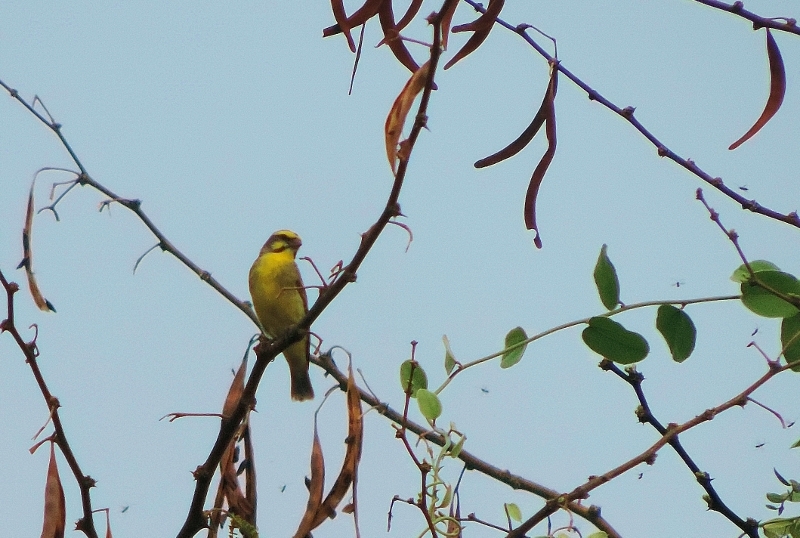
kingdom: Animalia
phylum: Chordata
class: Aves
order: Passeriformes
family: Fringillidae
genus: Crithagra
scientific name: Crithagra mozambica
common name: Yellow-fronted canary
